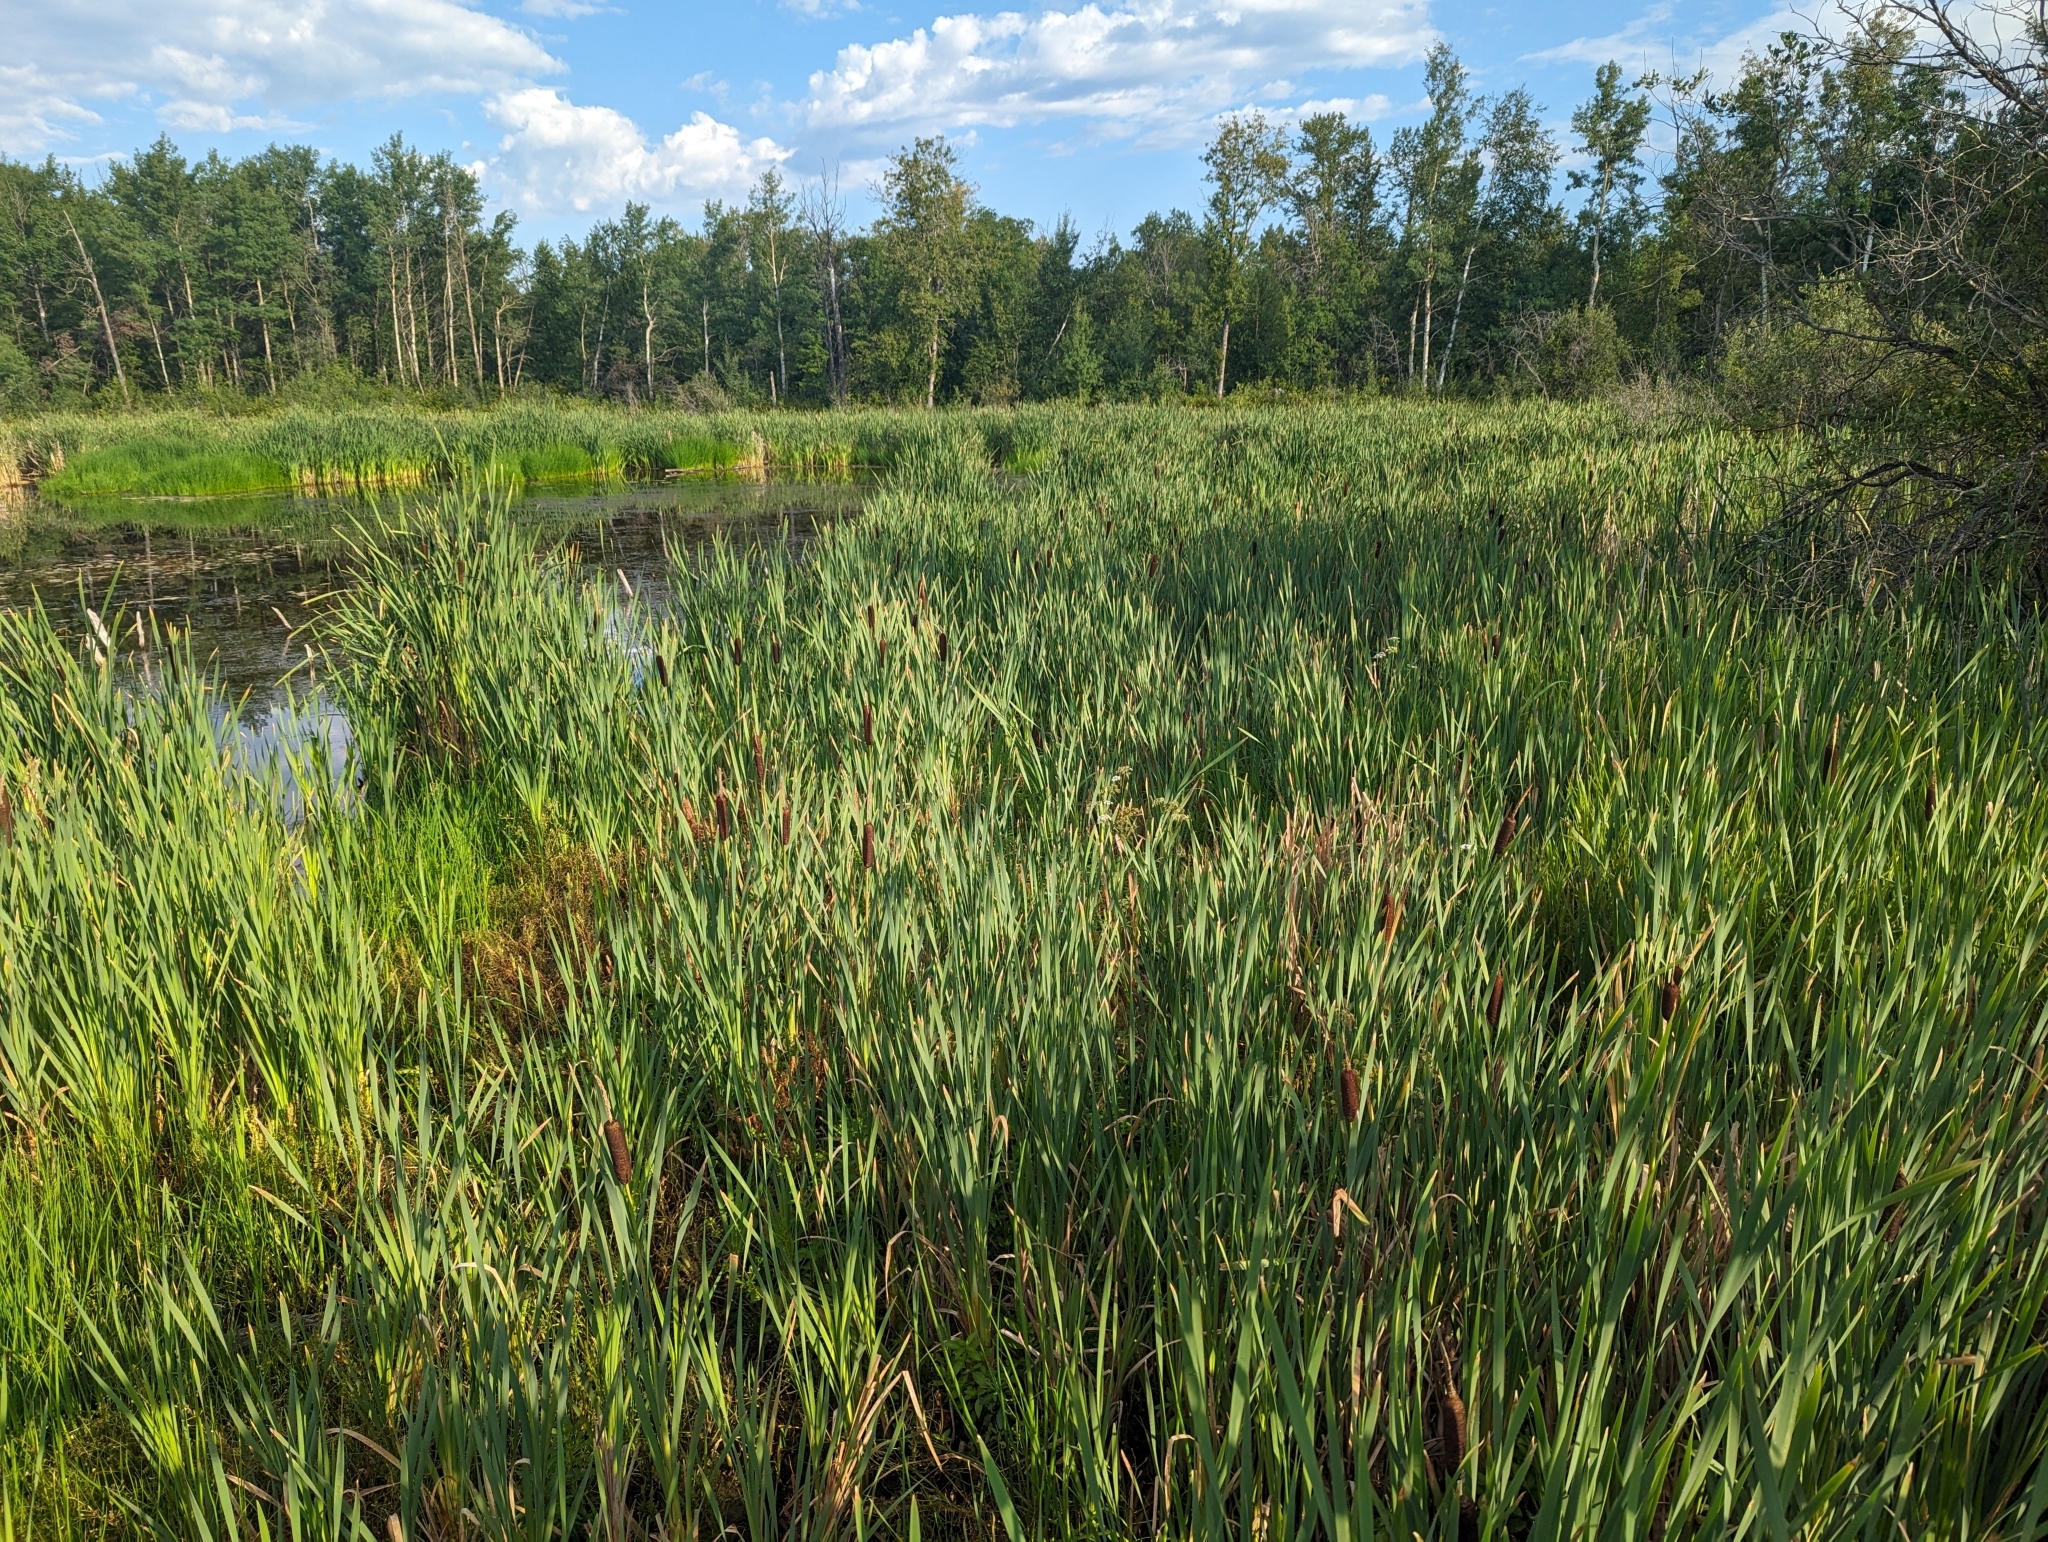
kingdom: Plantae
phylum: Tracheophyta
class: Liliopsida
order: Poales
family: Typhaceae
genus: Typha
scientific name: Typha latifolia
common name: Broadleaf cattail
